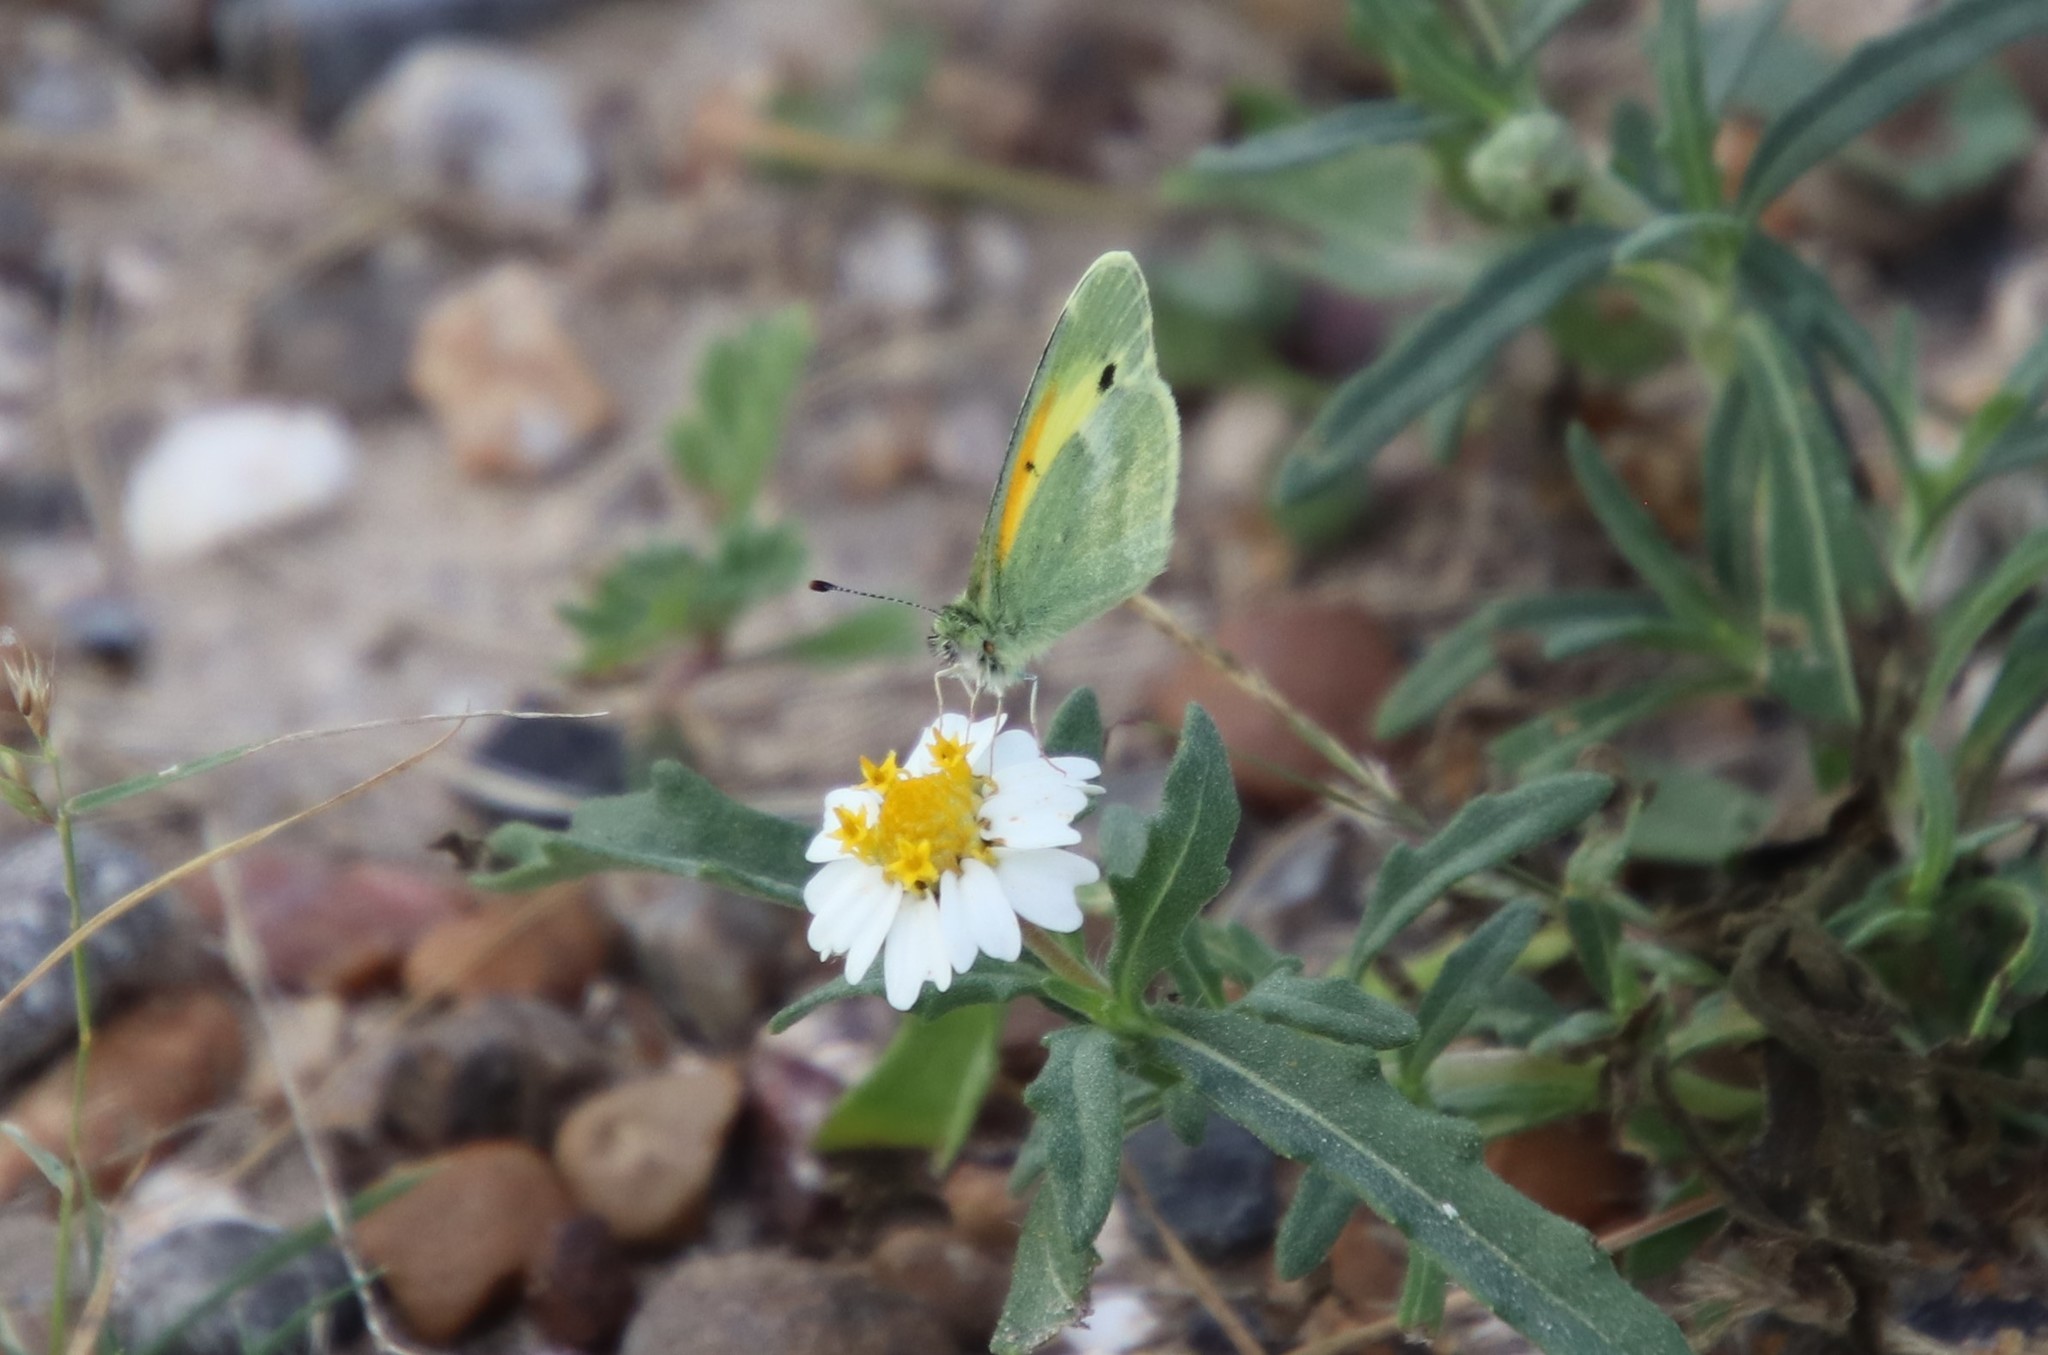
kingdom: Animalia
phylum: Arthropoda
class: Insecta
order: Lepidoptera
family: Pieridae
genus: Nathalis
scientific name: Nathalis iole
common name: Dainty sulphur
